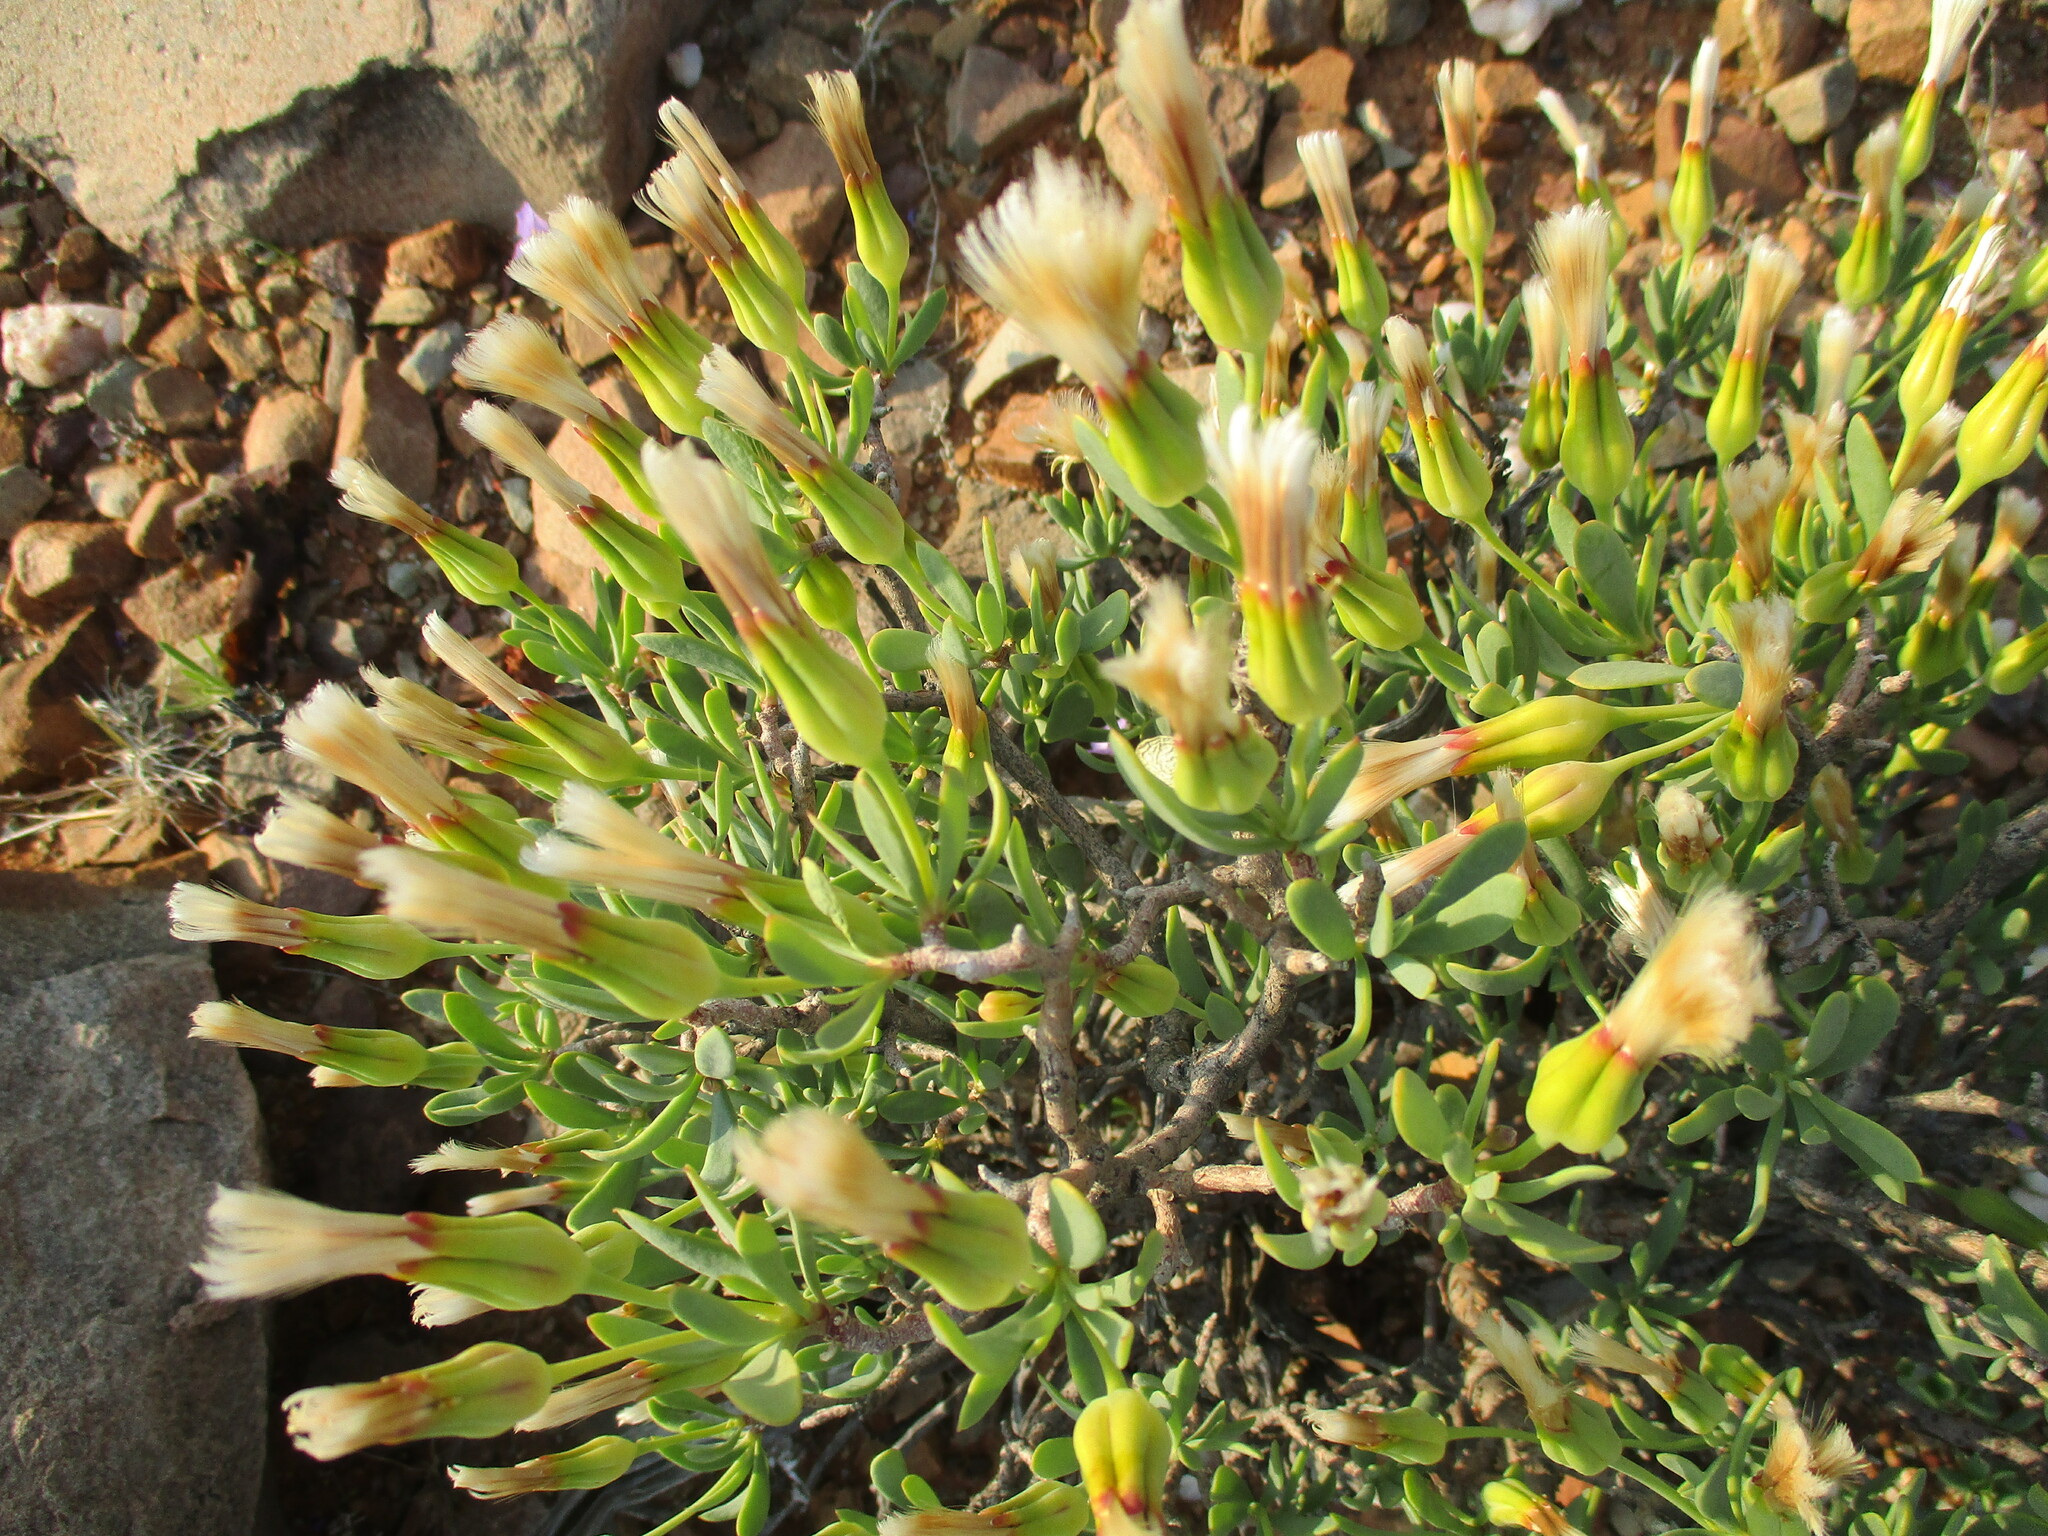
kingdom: Plantae
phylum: Tracheophyta
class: Magnoliopsida
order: Asterales
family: Asteraceae
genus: Othonna
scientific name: Othonna lasiocarpa
